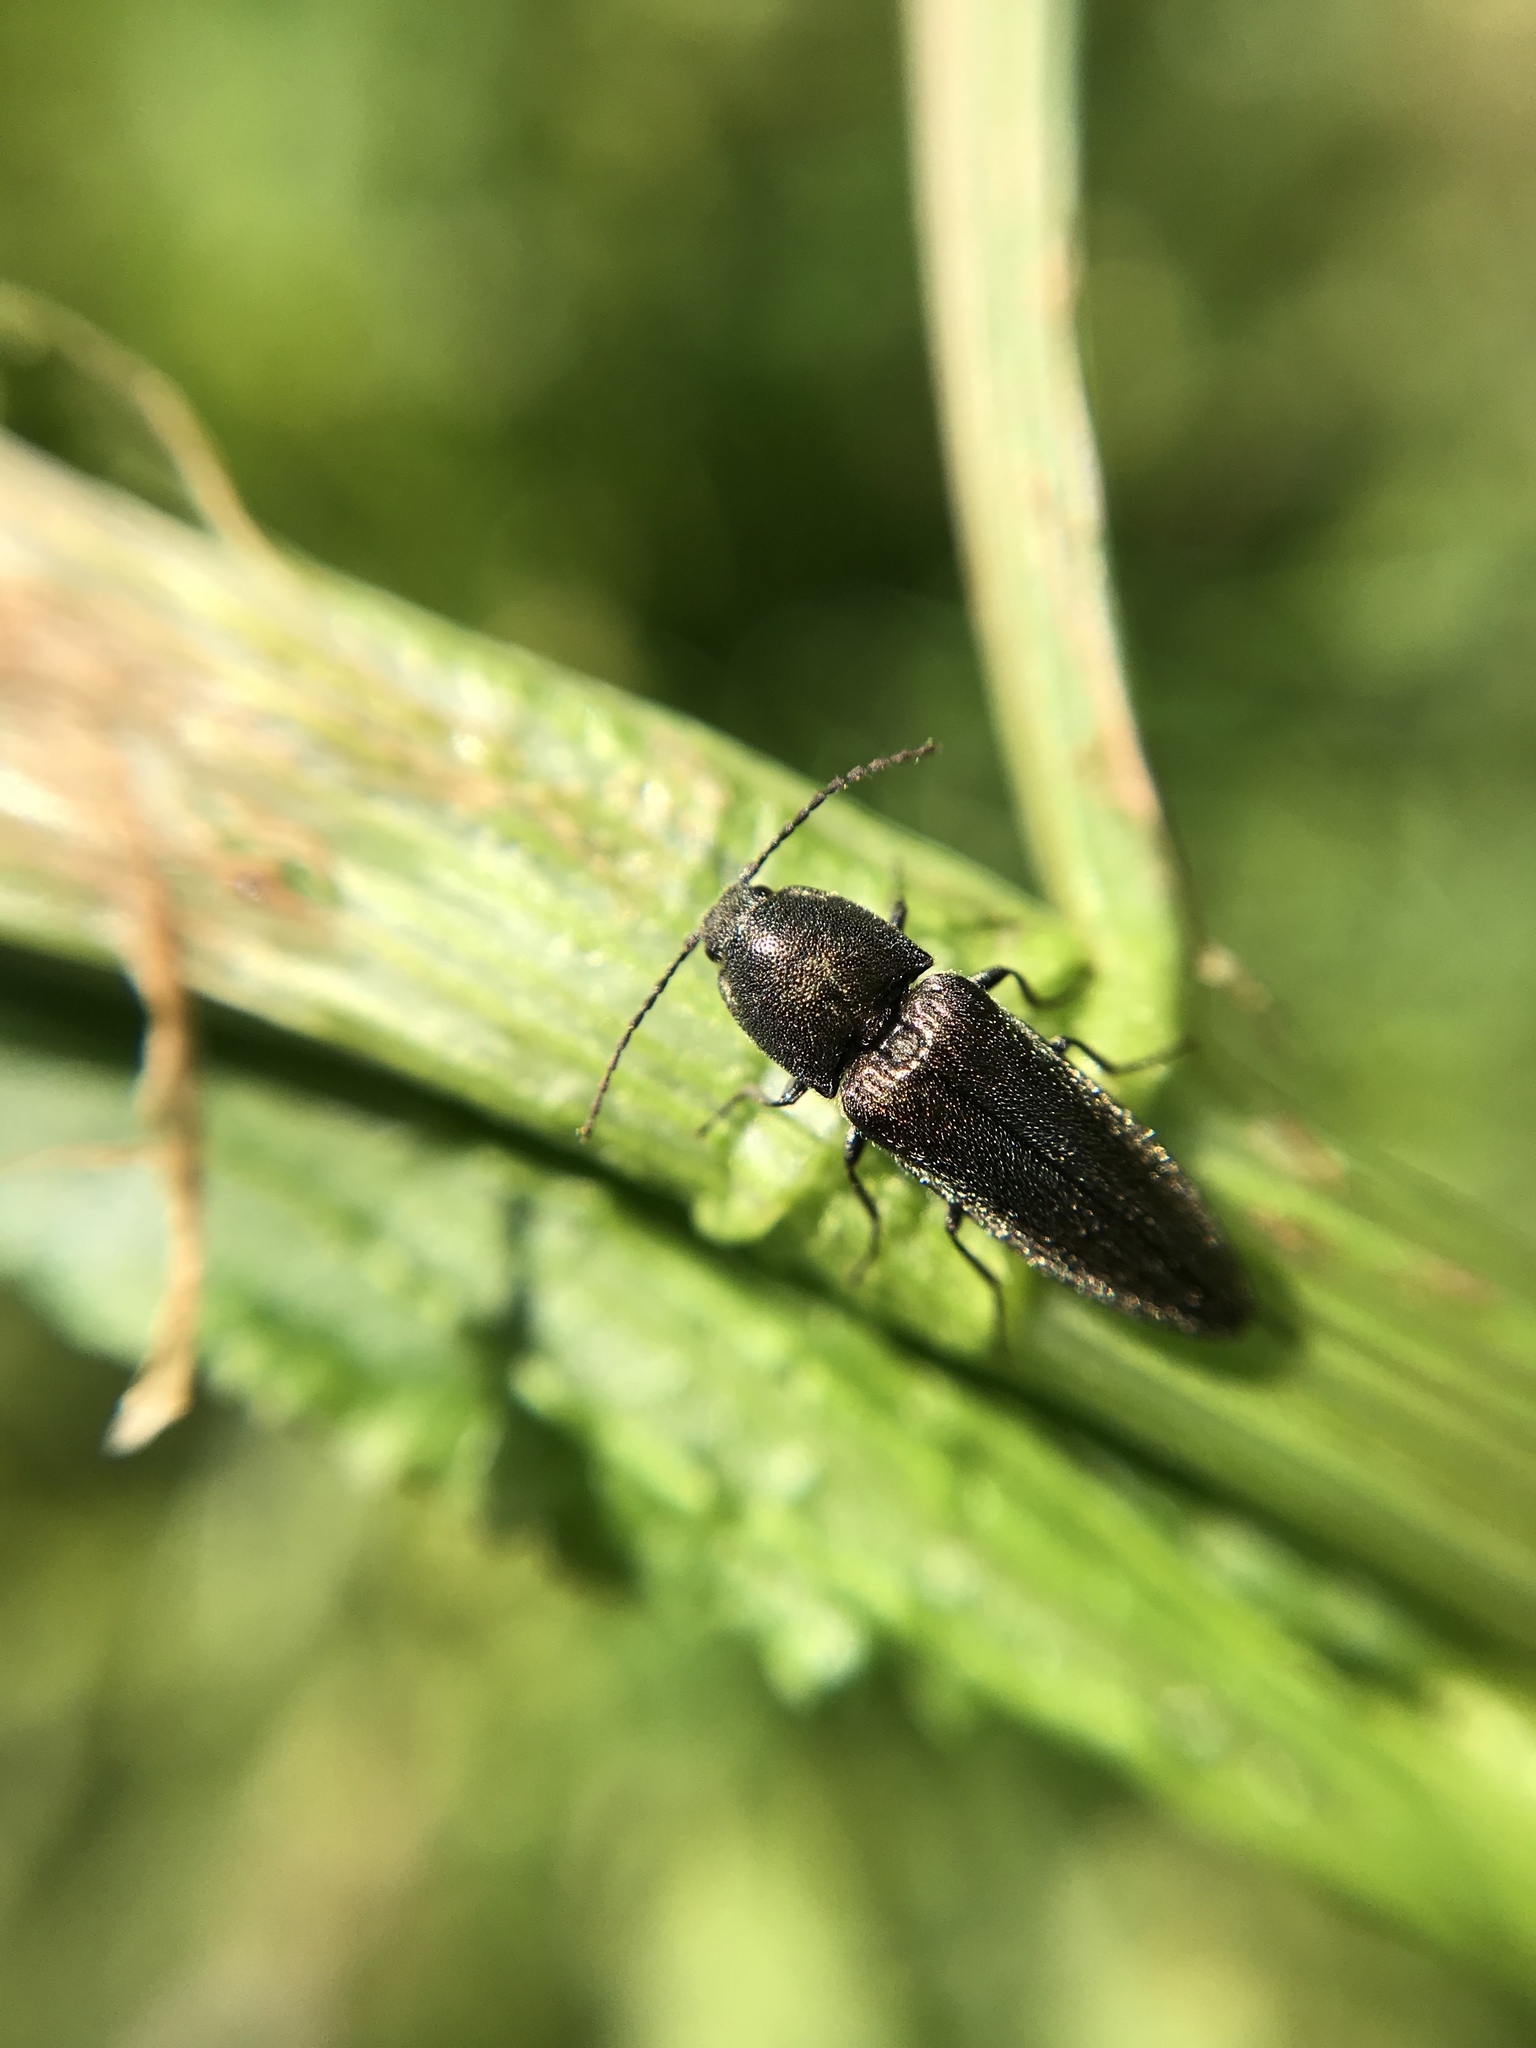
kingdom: Animalia
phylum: Arthropoda
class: Insecta
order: Coleoptera
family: Elateridae
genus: Cidnopus
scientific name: Cidnopus pilosus
